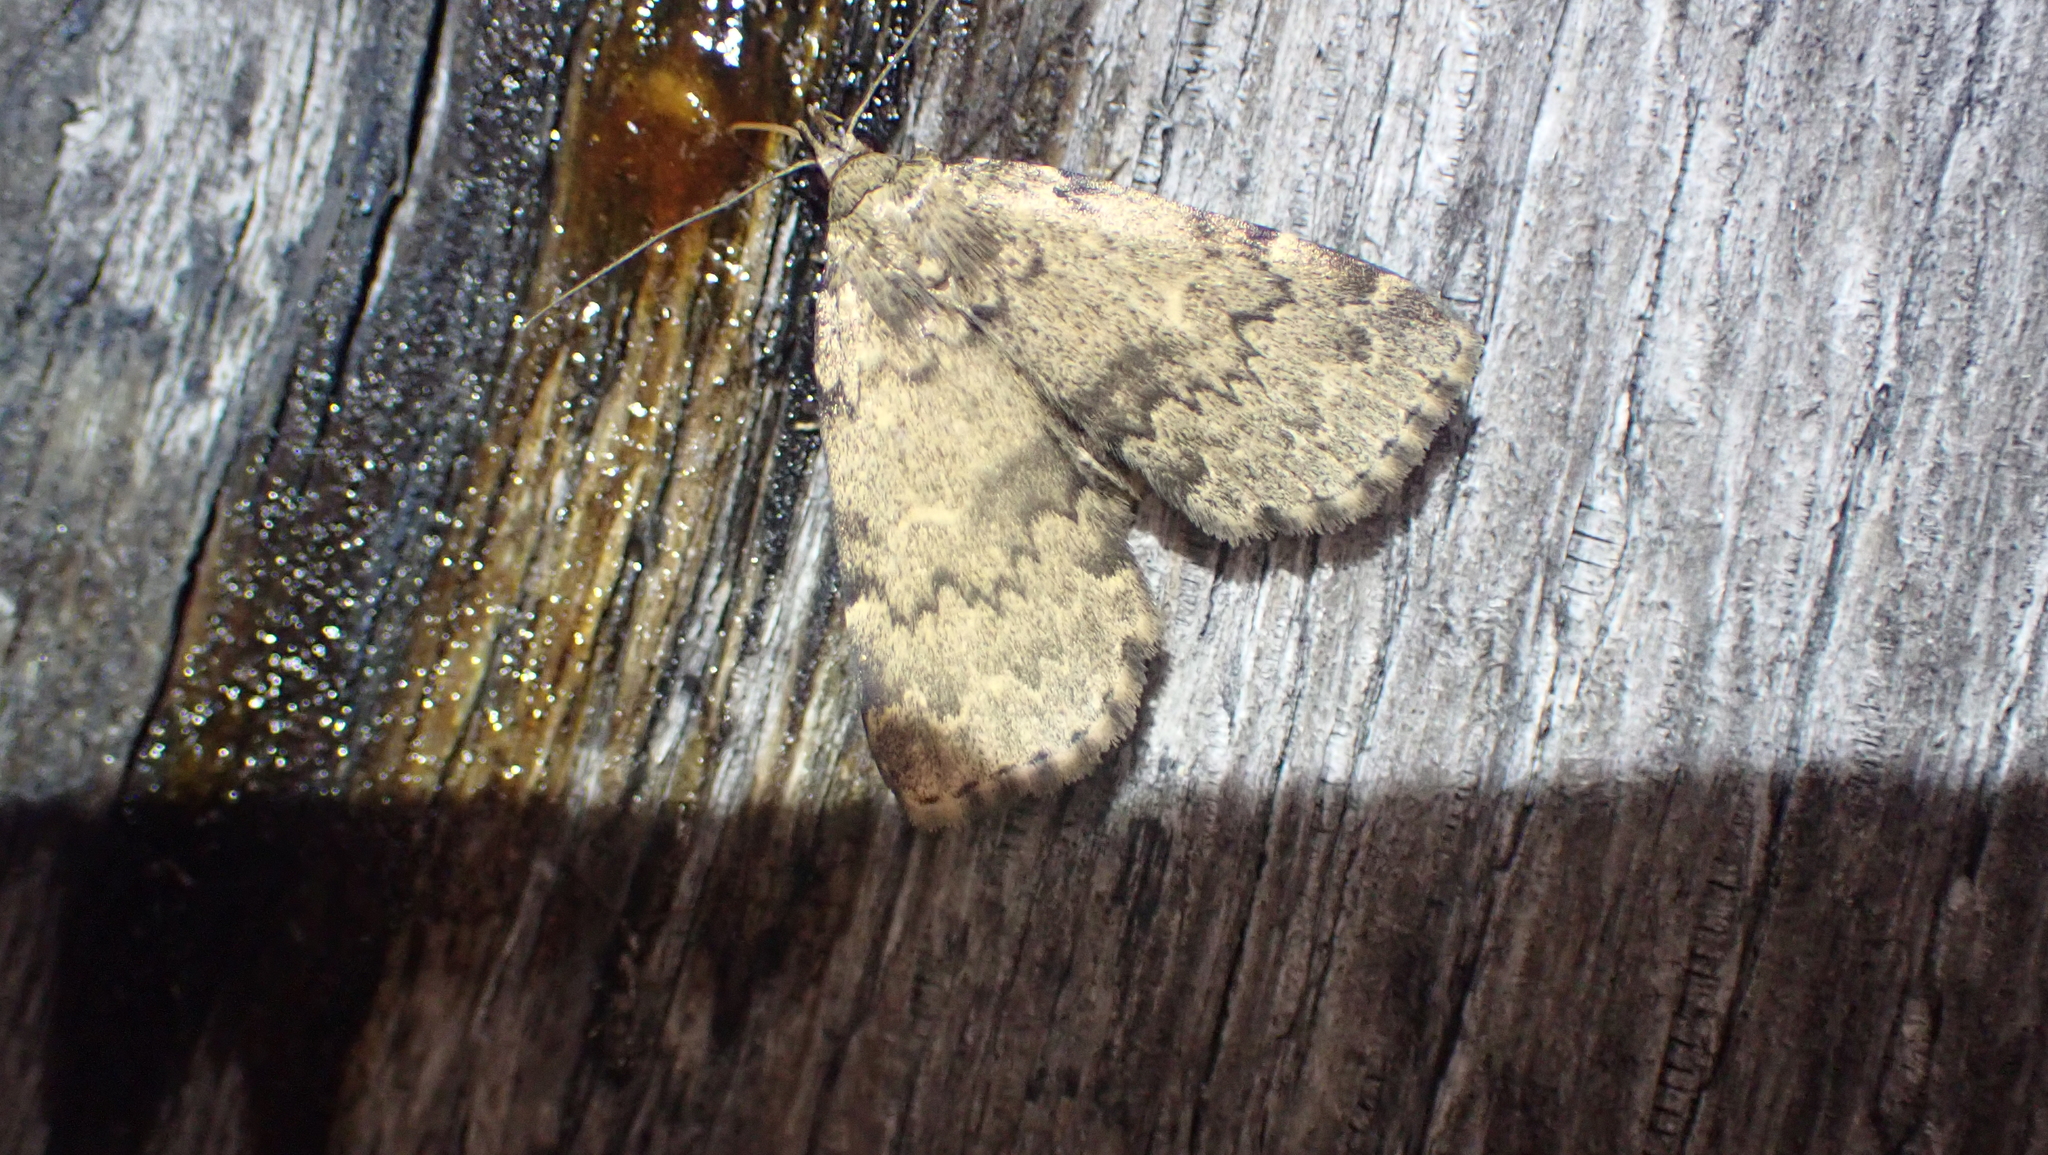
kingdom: Animalia
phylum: Arthropoda
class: Insecta
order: Lepidoptera
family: Erebidae
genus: Idia
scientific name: Idia denticulalis
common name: Toothed idia moth
